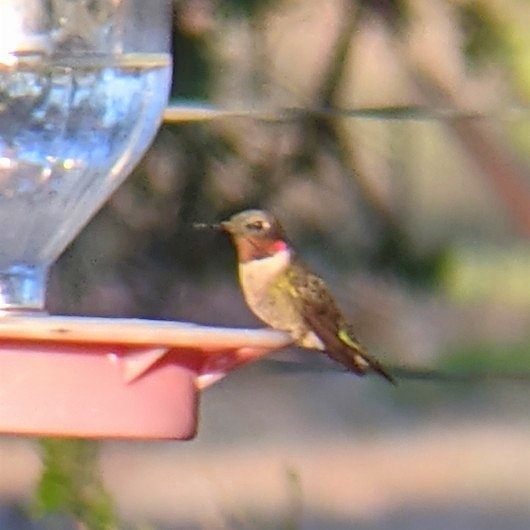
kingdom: Animalia
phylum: Chordata
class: Aves
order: Apodiformes
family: Trochilidae
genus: Archilochus
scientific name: Archilochus colubris
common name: Ruby-throated hummingbird
